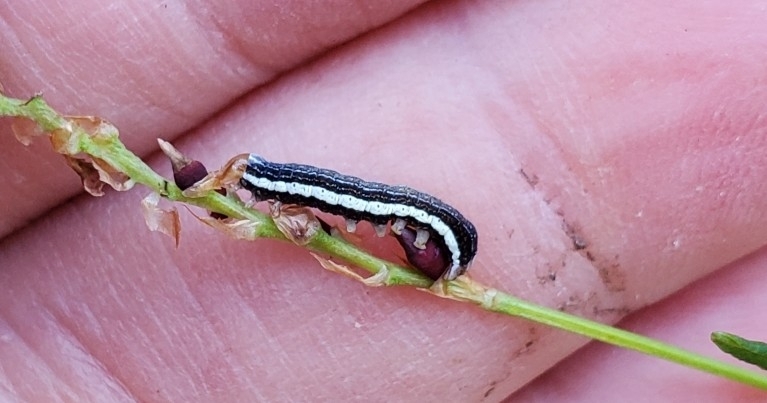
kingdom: Animalia
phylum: Arthropoda
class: Insecta
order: Lepidoptera
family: Noctuidae
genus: Orthosia
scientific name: Orthosia revicta
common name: Rusty whitesided caterpillar
